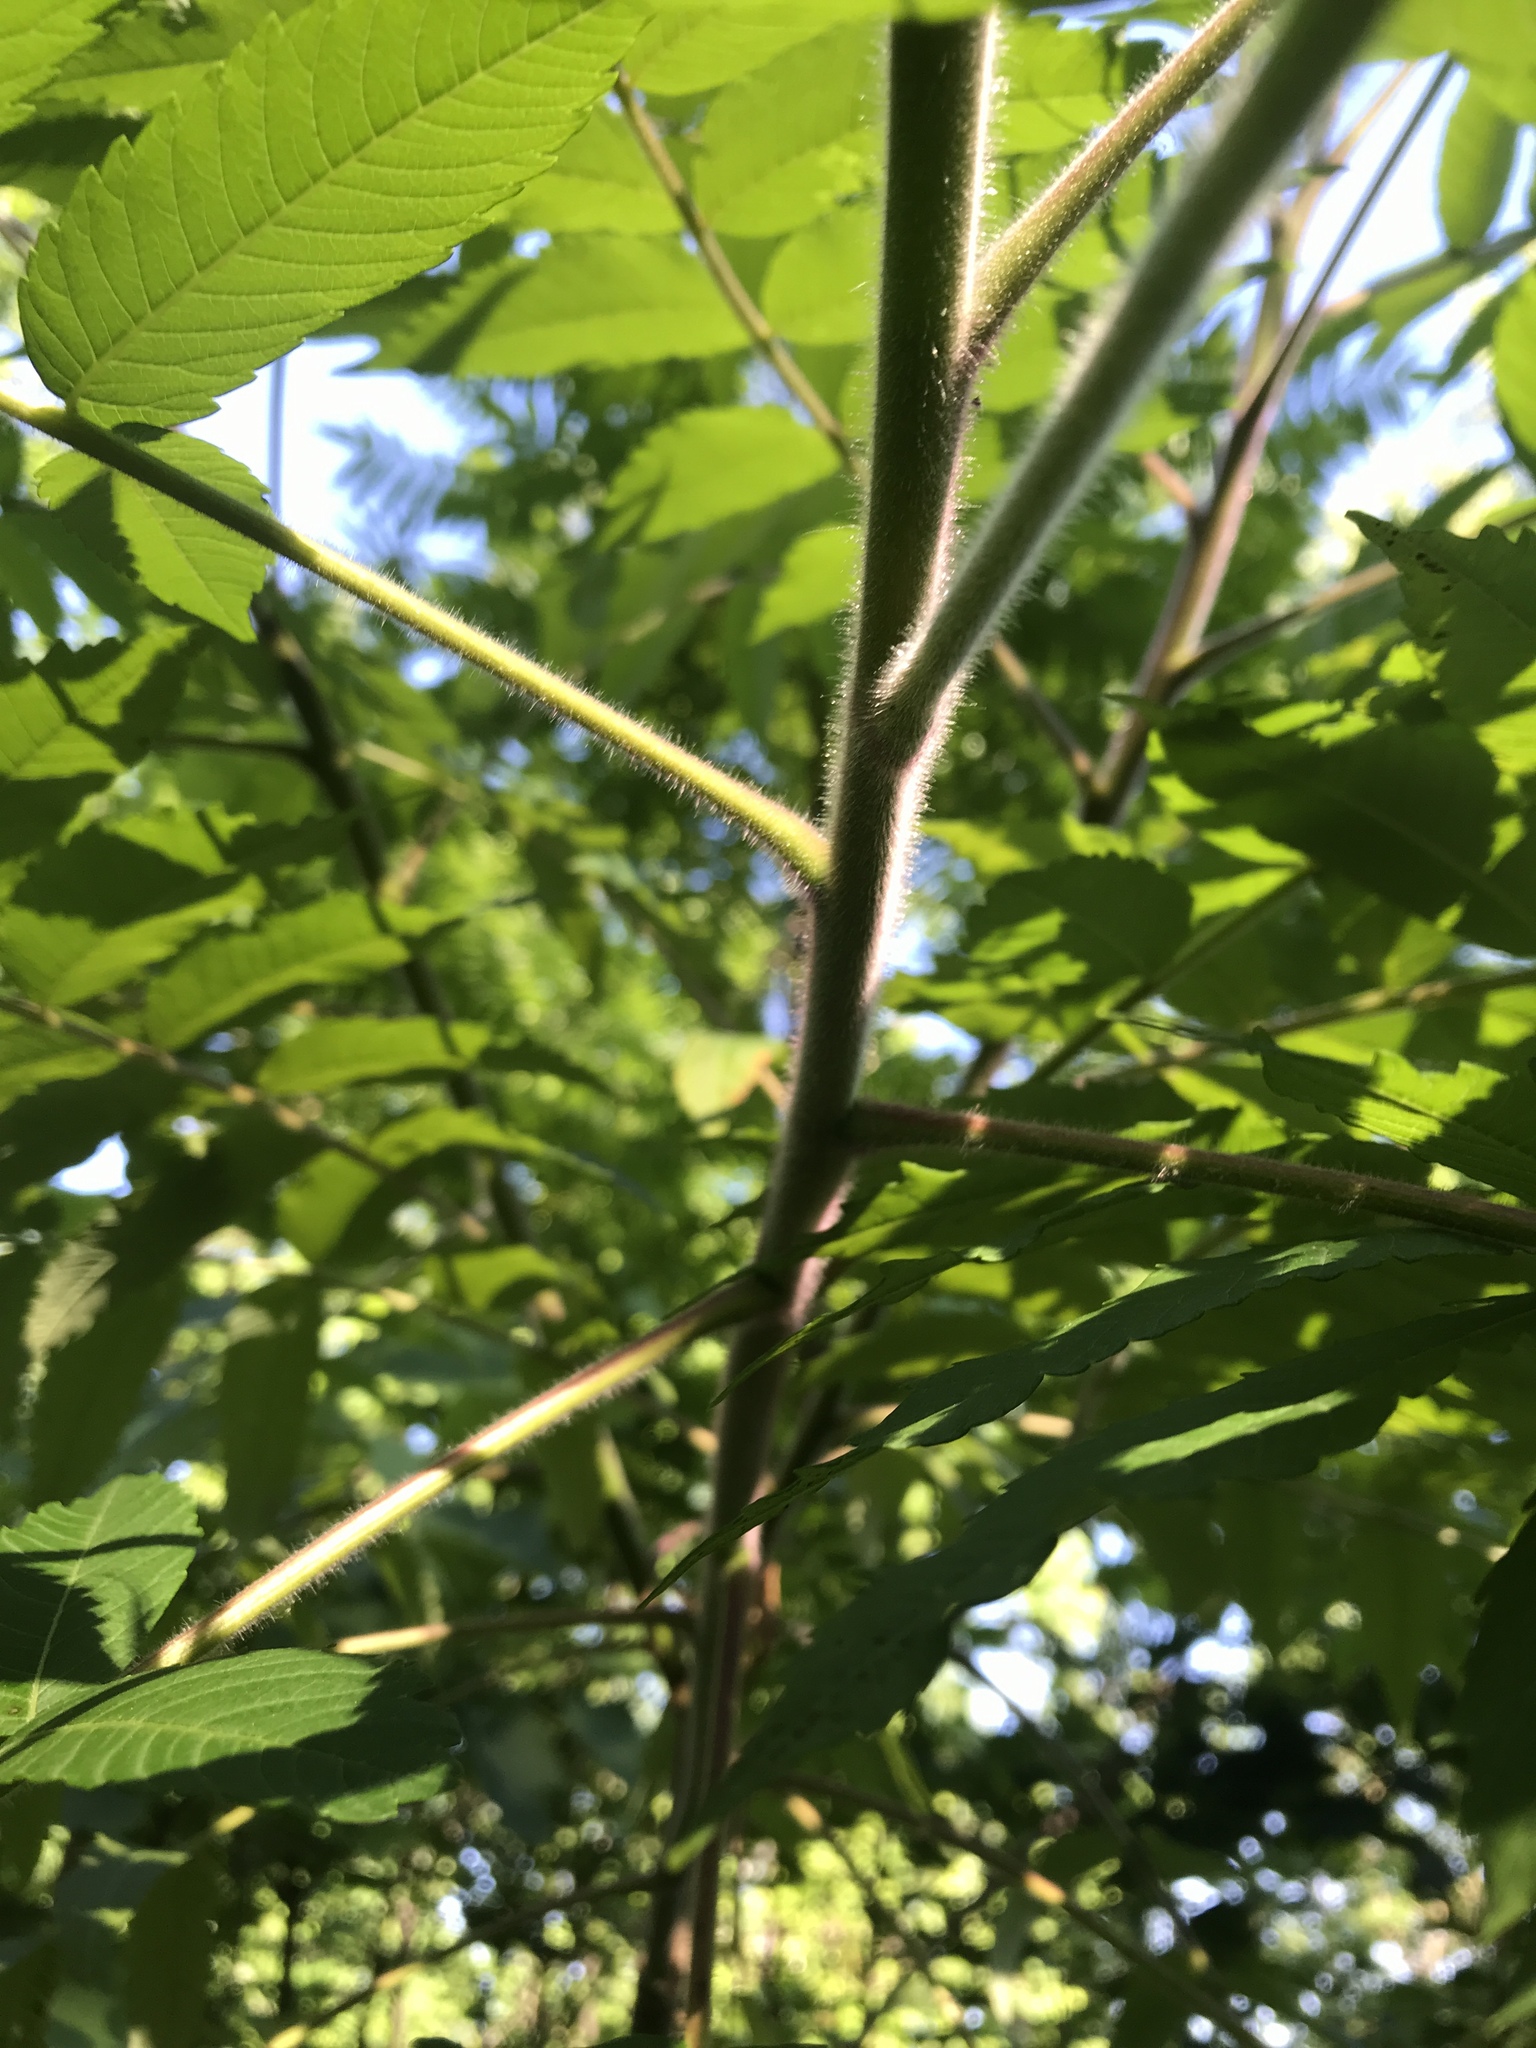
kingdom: Plantae
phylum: Tracheophyta
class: Magnoliopsida
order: Sapindales
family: Anacardiaceae
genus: Rhus
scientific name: Rhus typhina
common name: Staghorn sumac
